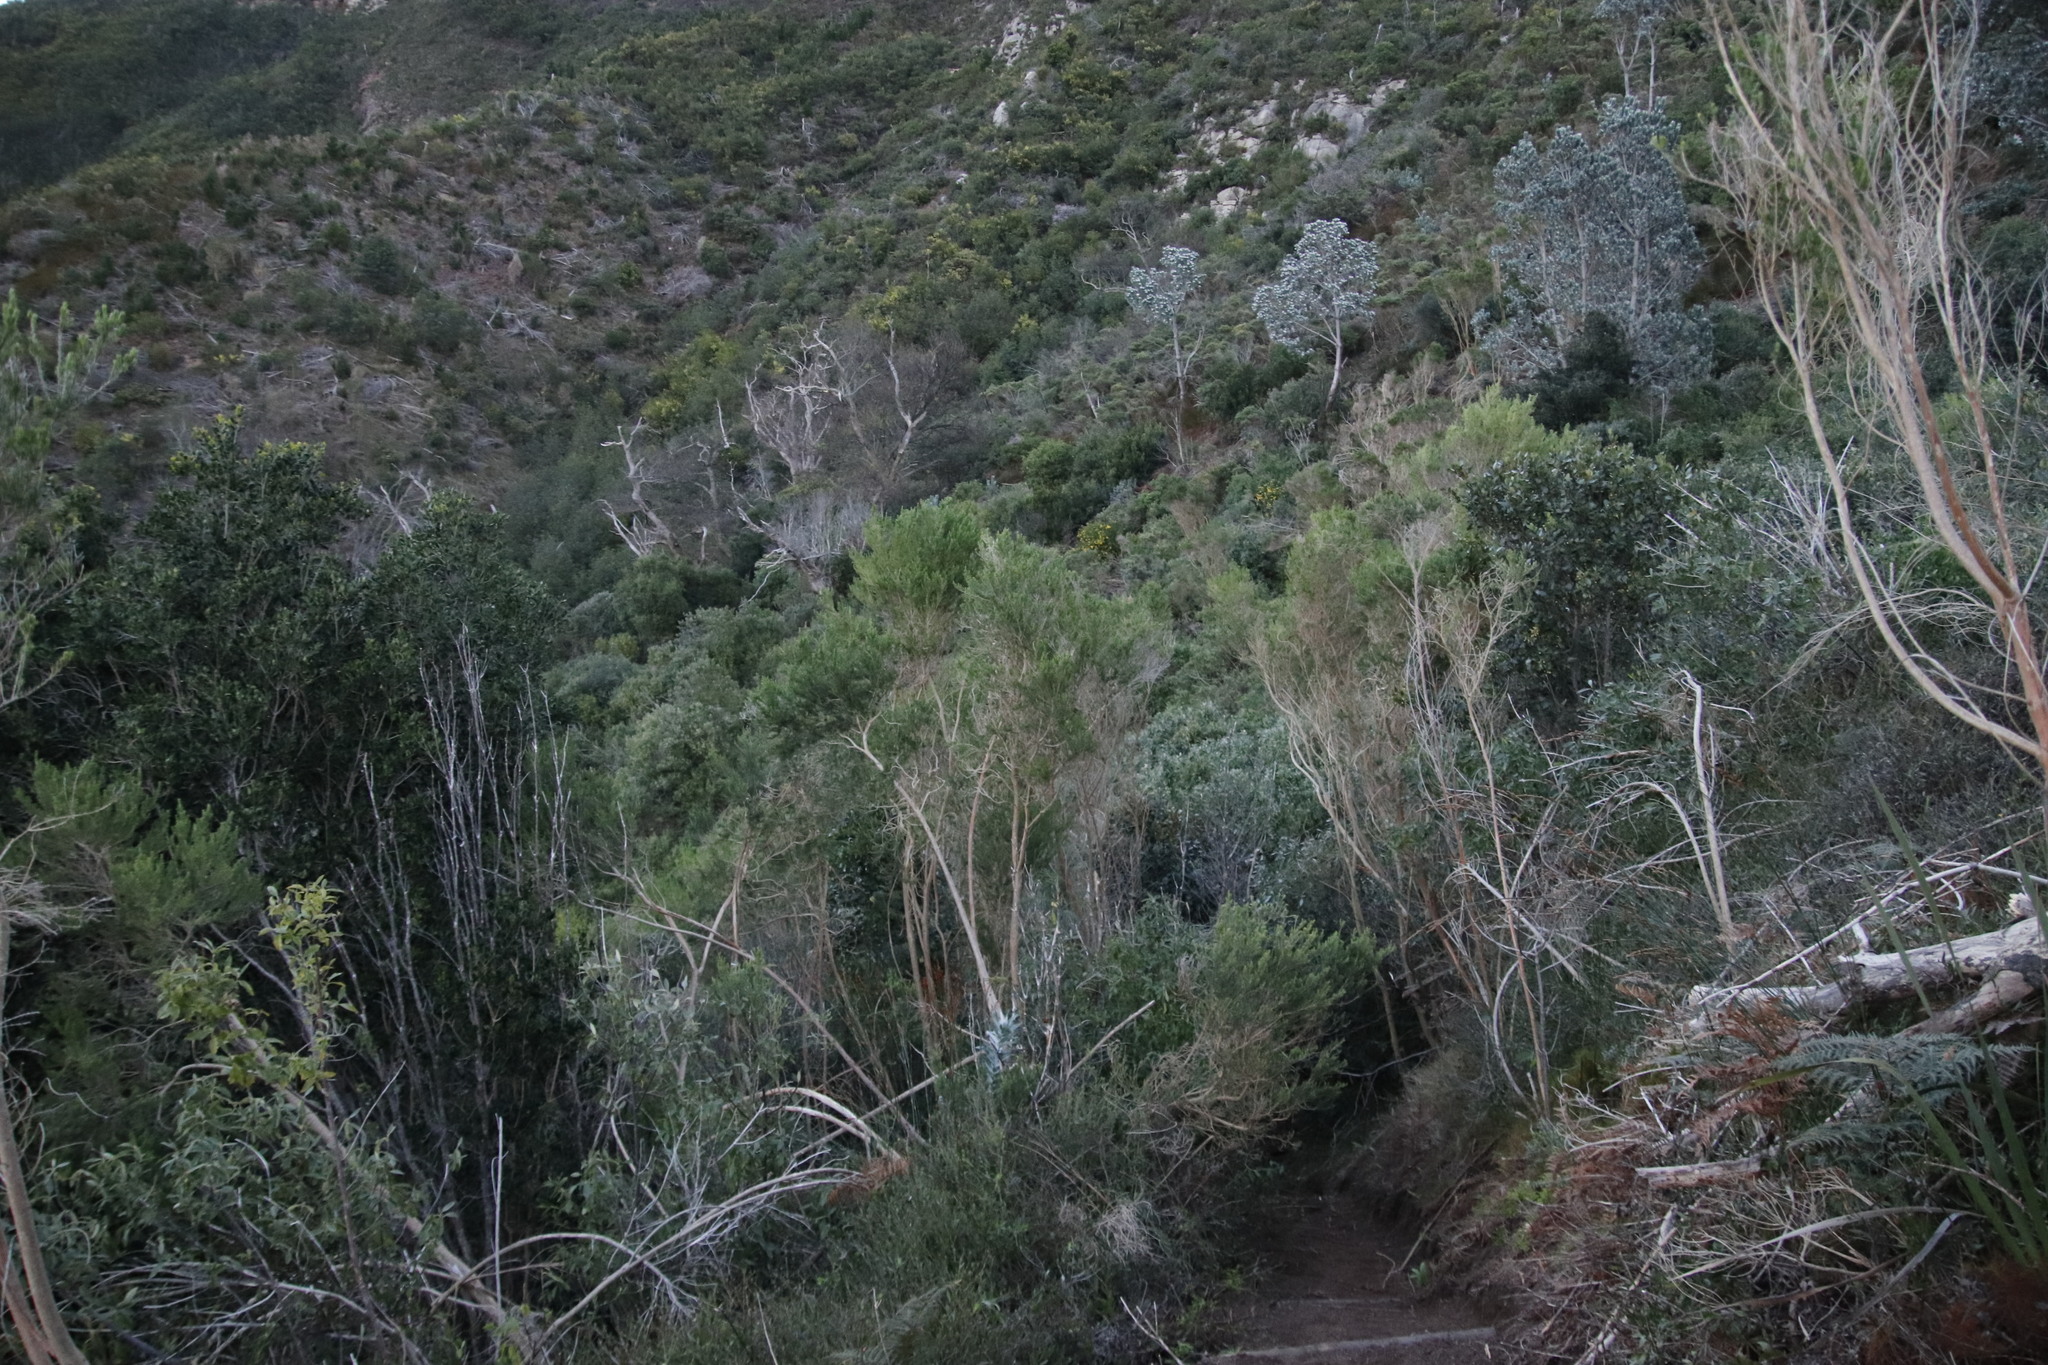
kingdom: Plantae
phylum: Tracheophyta
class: Magnoliopsida
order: Fabales
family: Fabaceae
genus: Aspalathus
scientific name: Aspalathus macrantha
